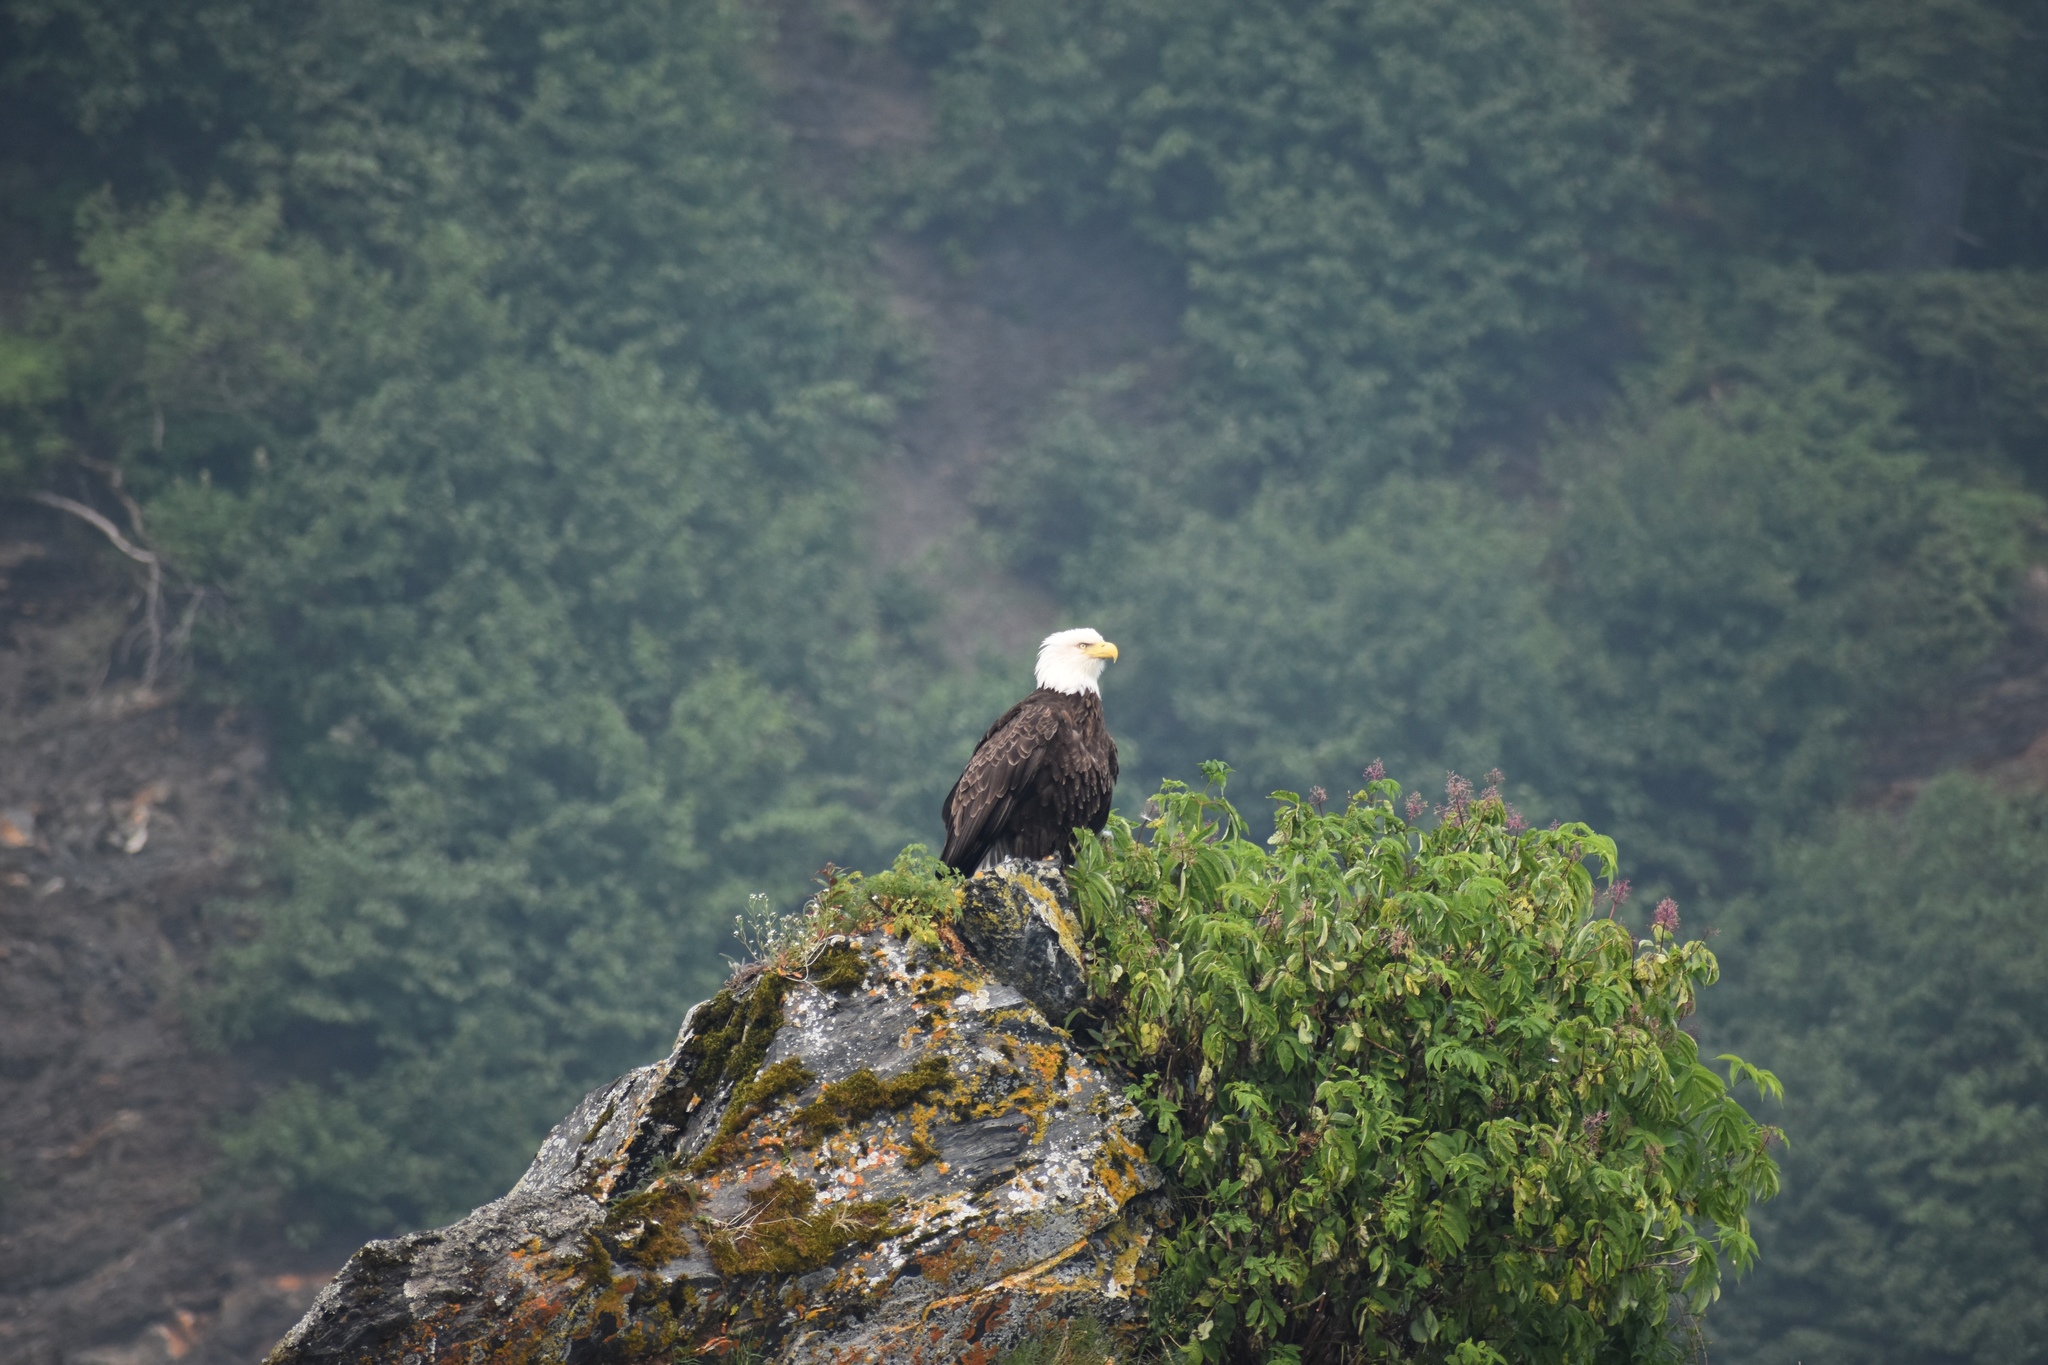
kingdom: Animalia
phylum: Chordata
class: Aves
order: Accipitriformes
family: Accipitridae
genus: Haliaeetus
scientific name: Haliaeetus leucocephalus
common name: Bald eagle
